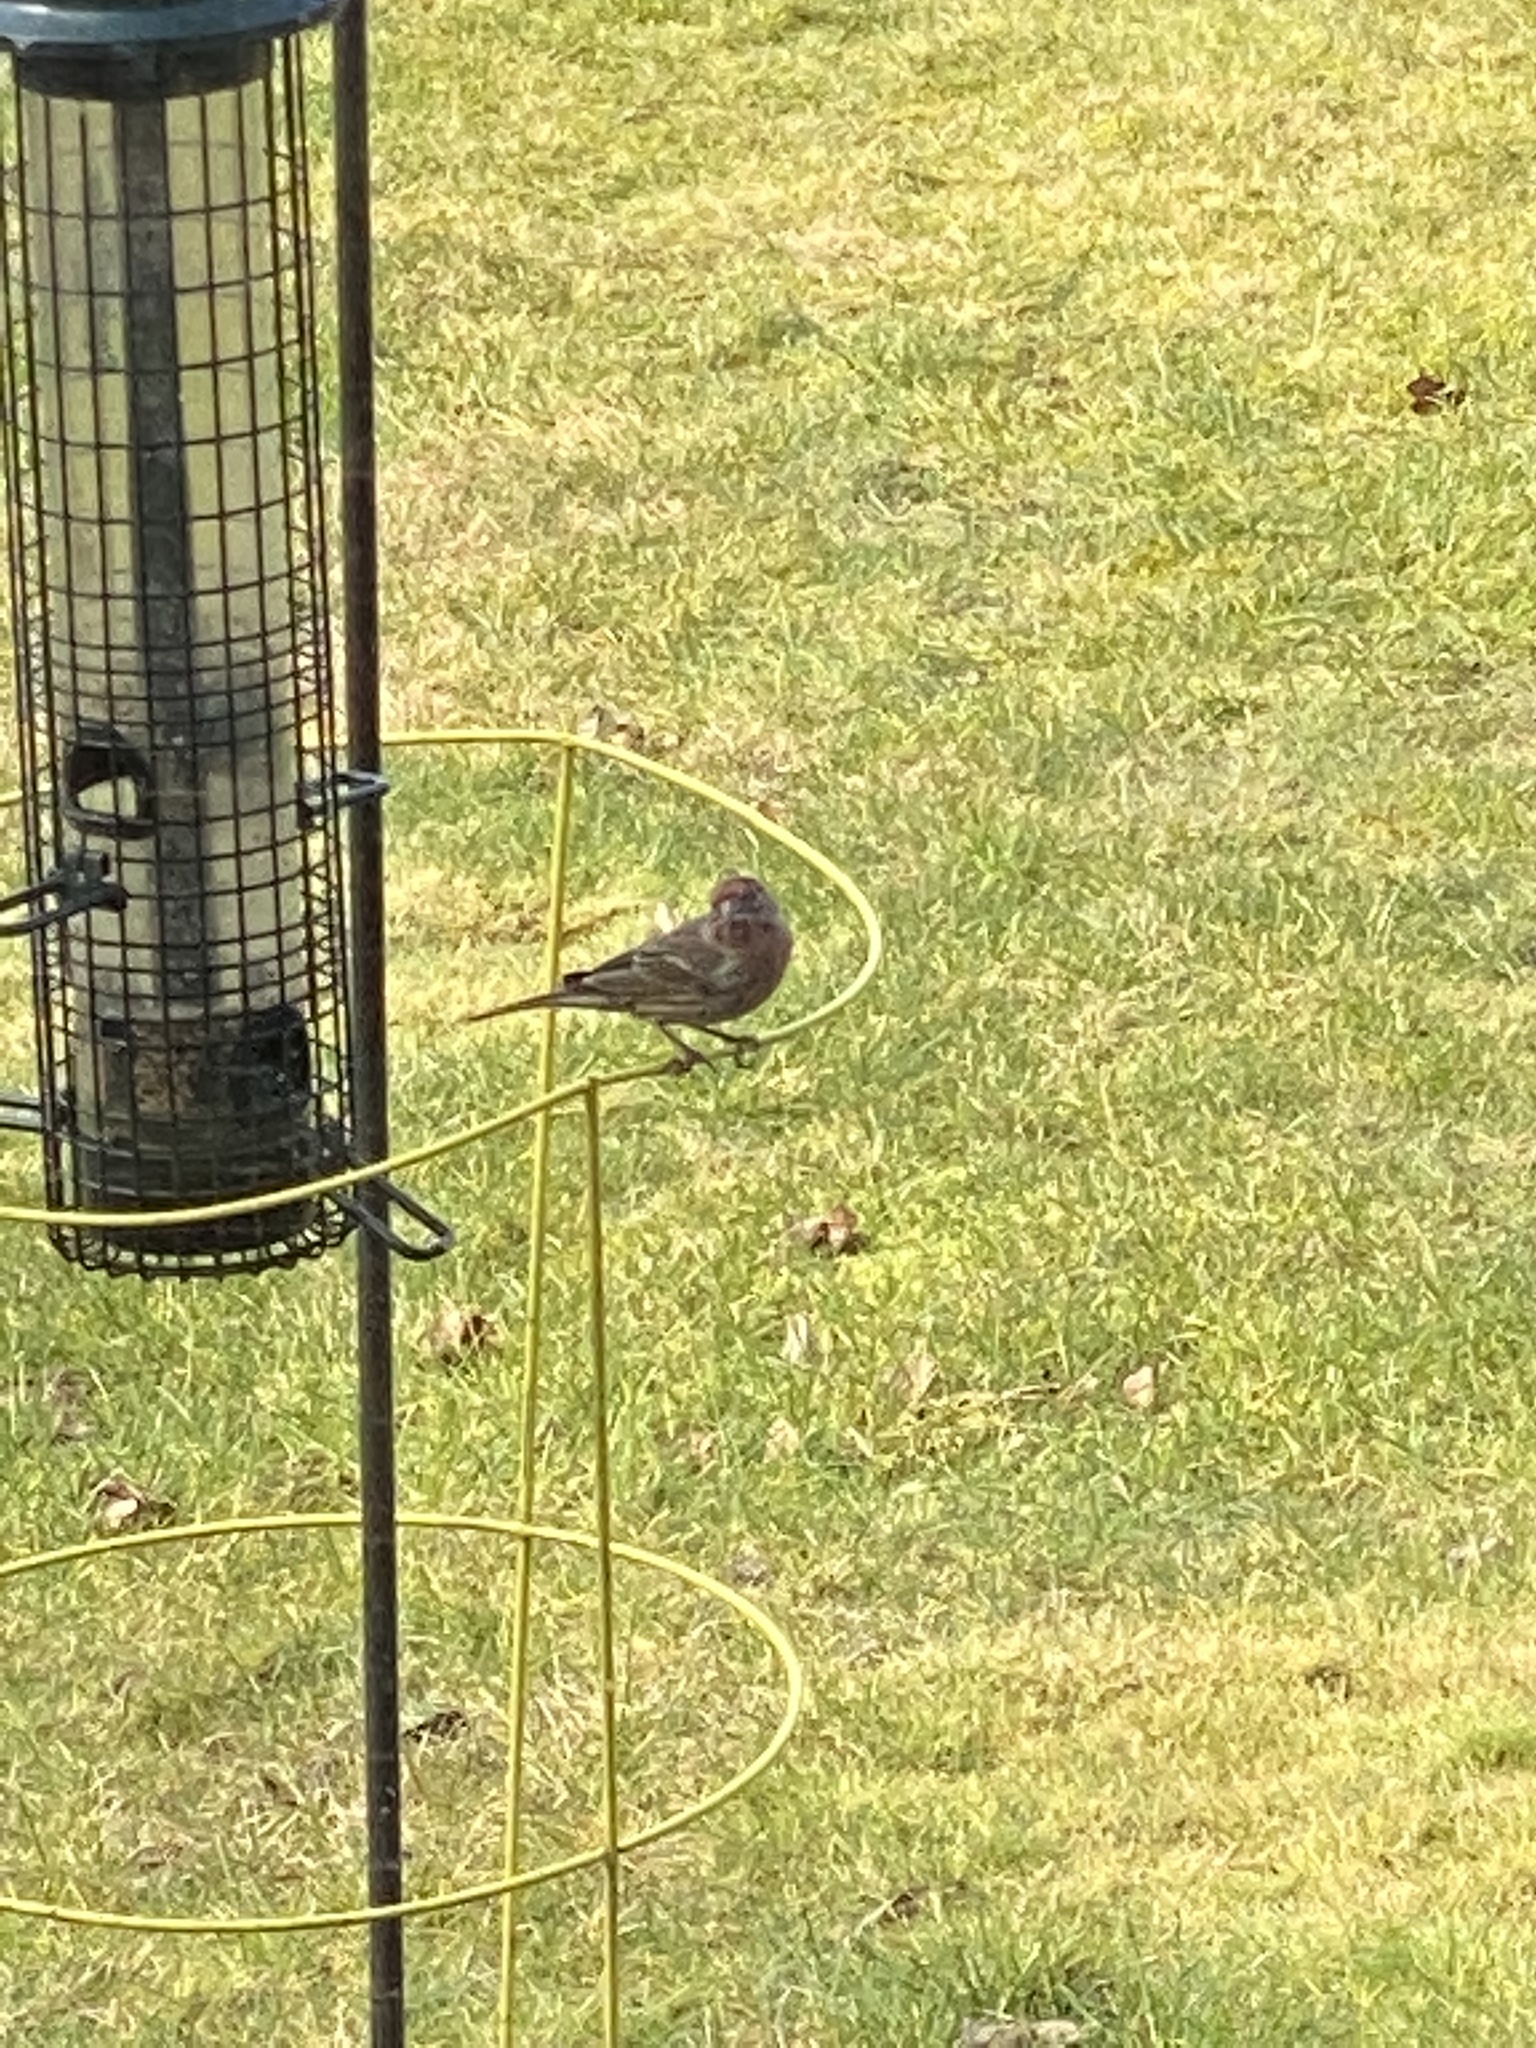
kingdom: Animalia
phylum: Chordata
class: Aves
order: Passeriformes
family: Fringillidae
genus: Haemorhous
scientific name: Haemorhous mexicanus
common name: House finch
